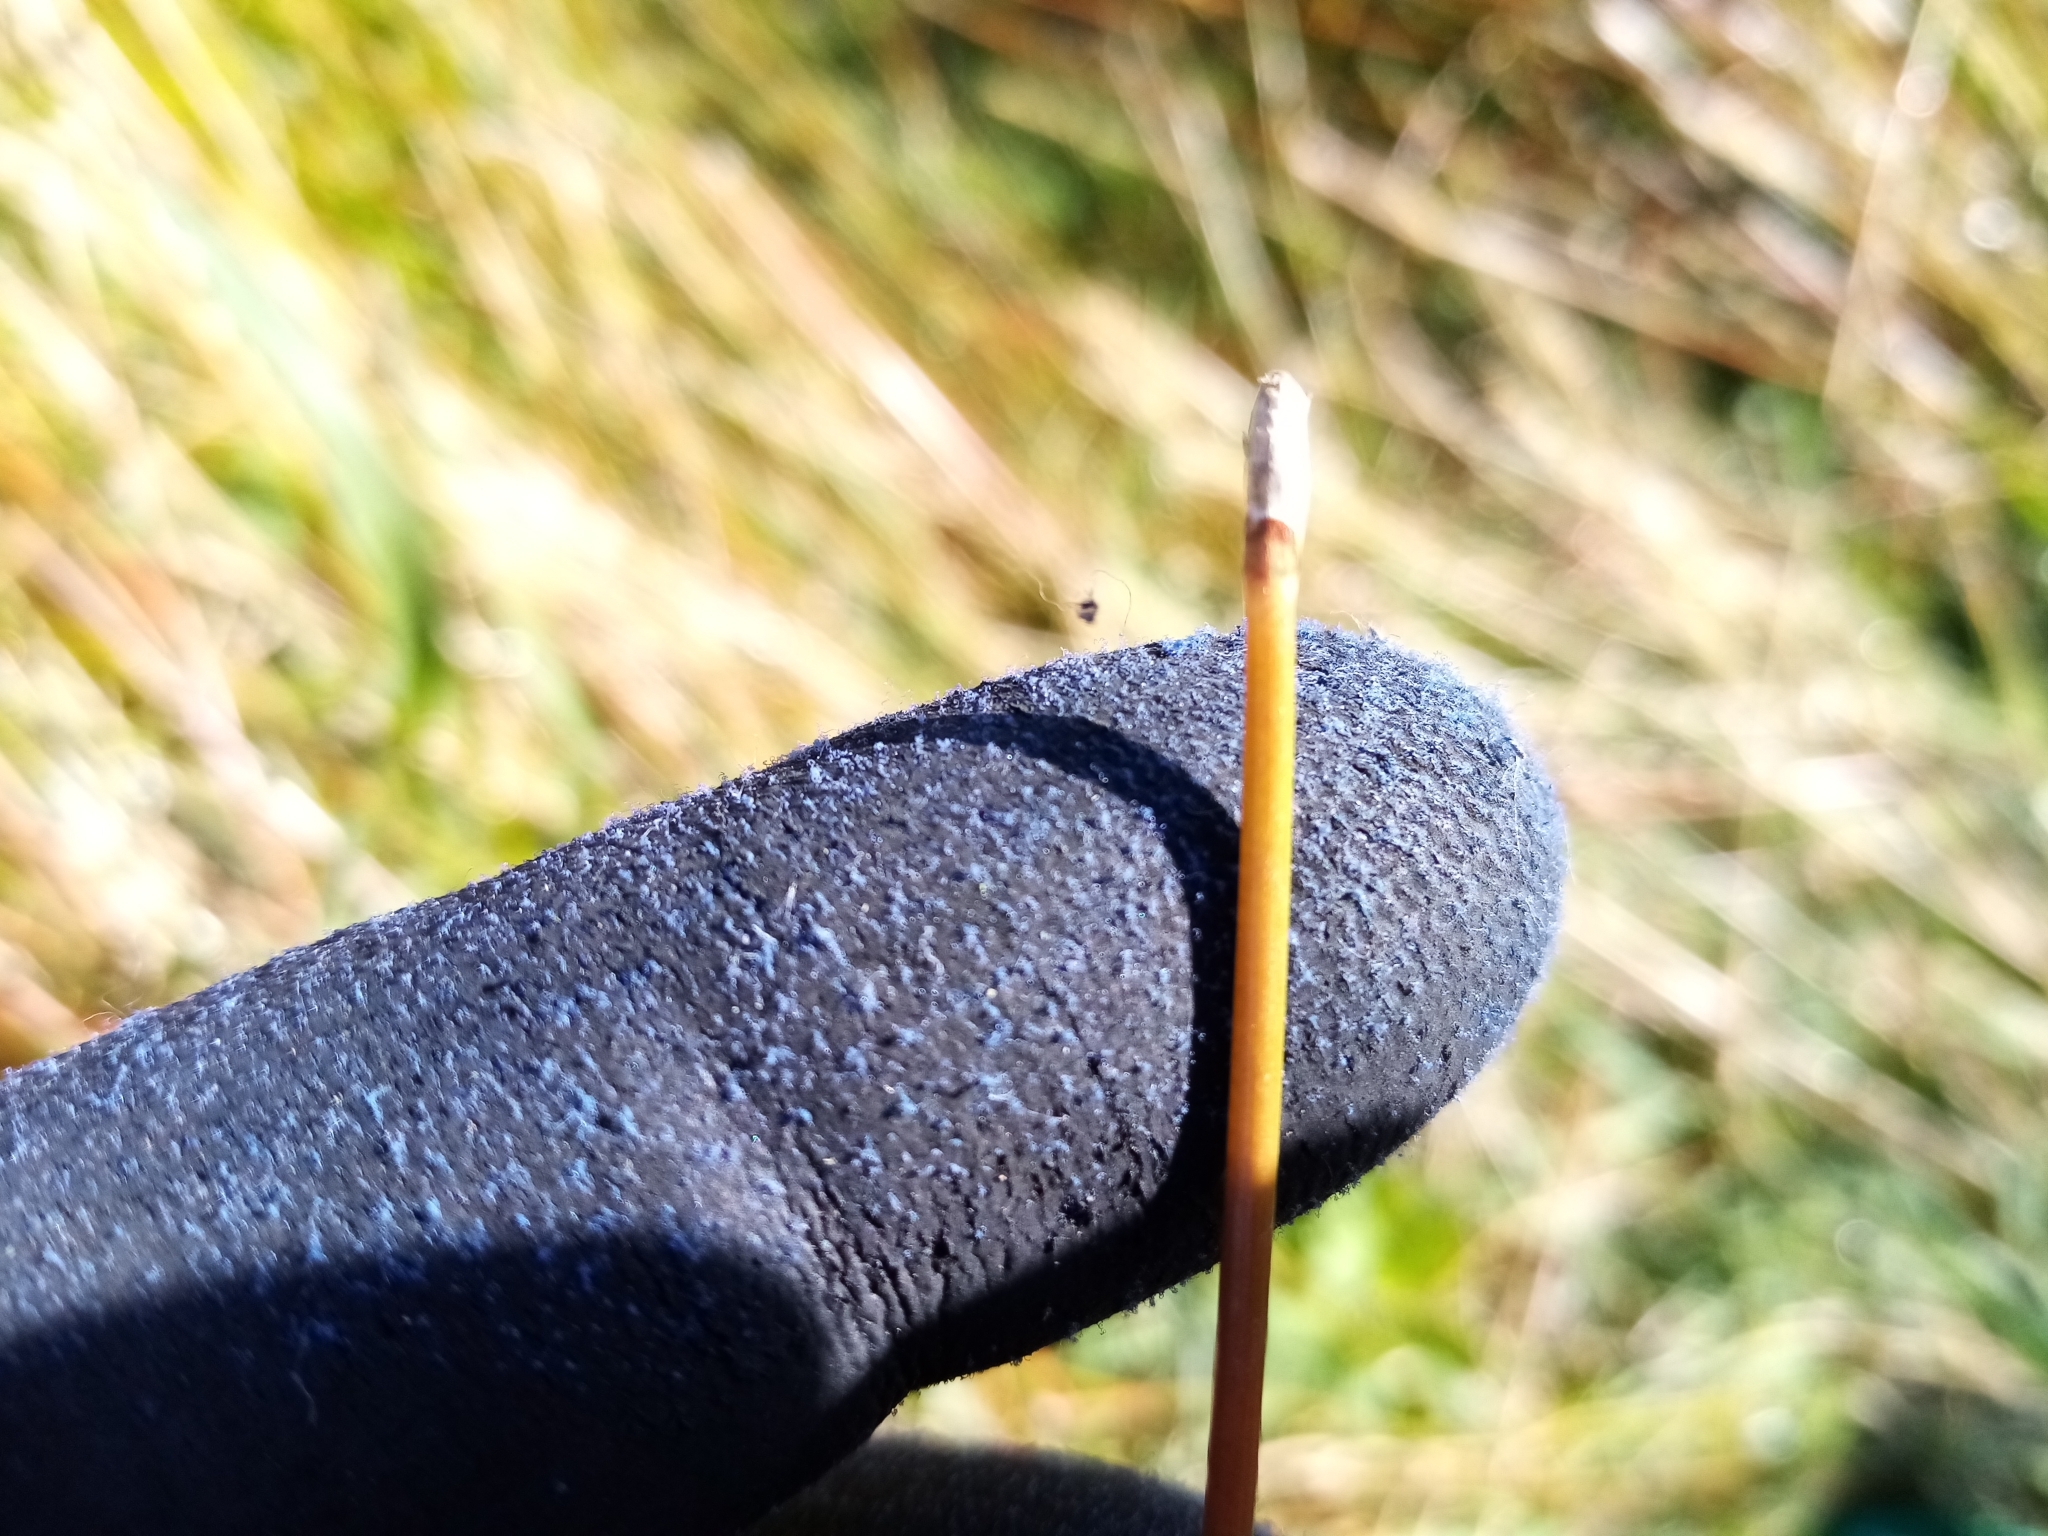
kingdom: Plantae
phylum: Tracheophyta
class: Liliopsida
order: Poales
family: Cyperaceae
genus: Eleocharis
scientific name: Eleocharis acuta
